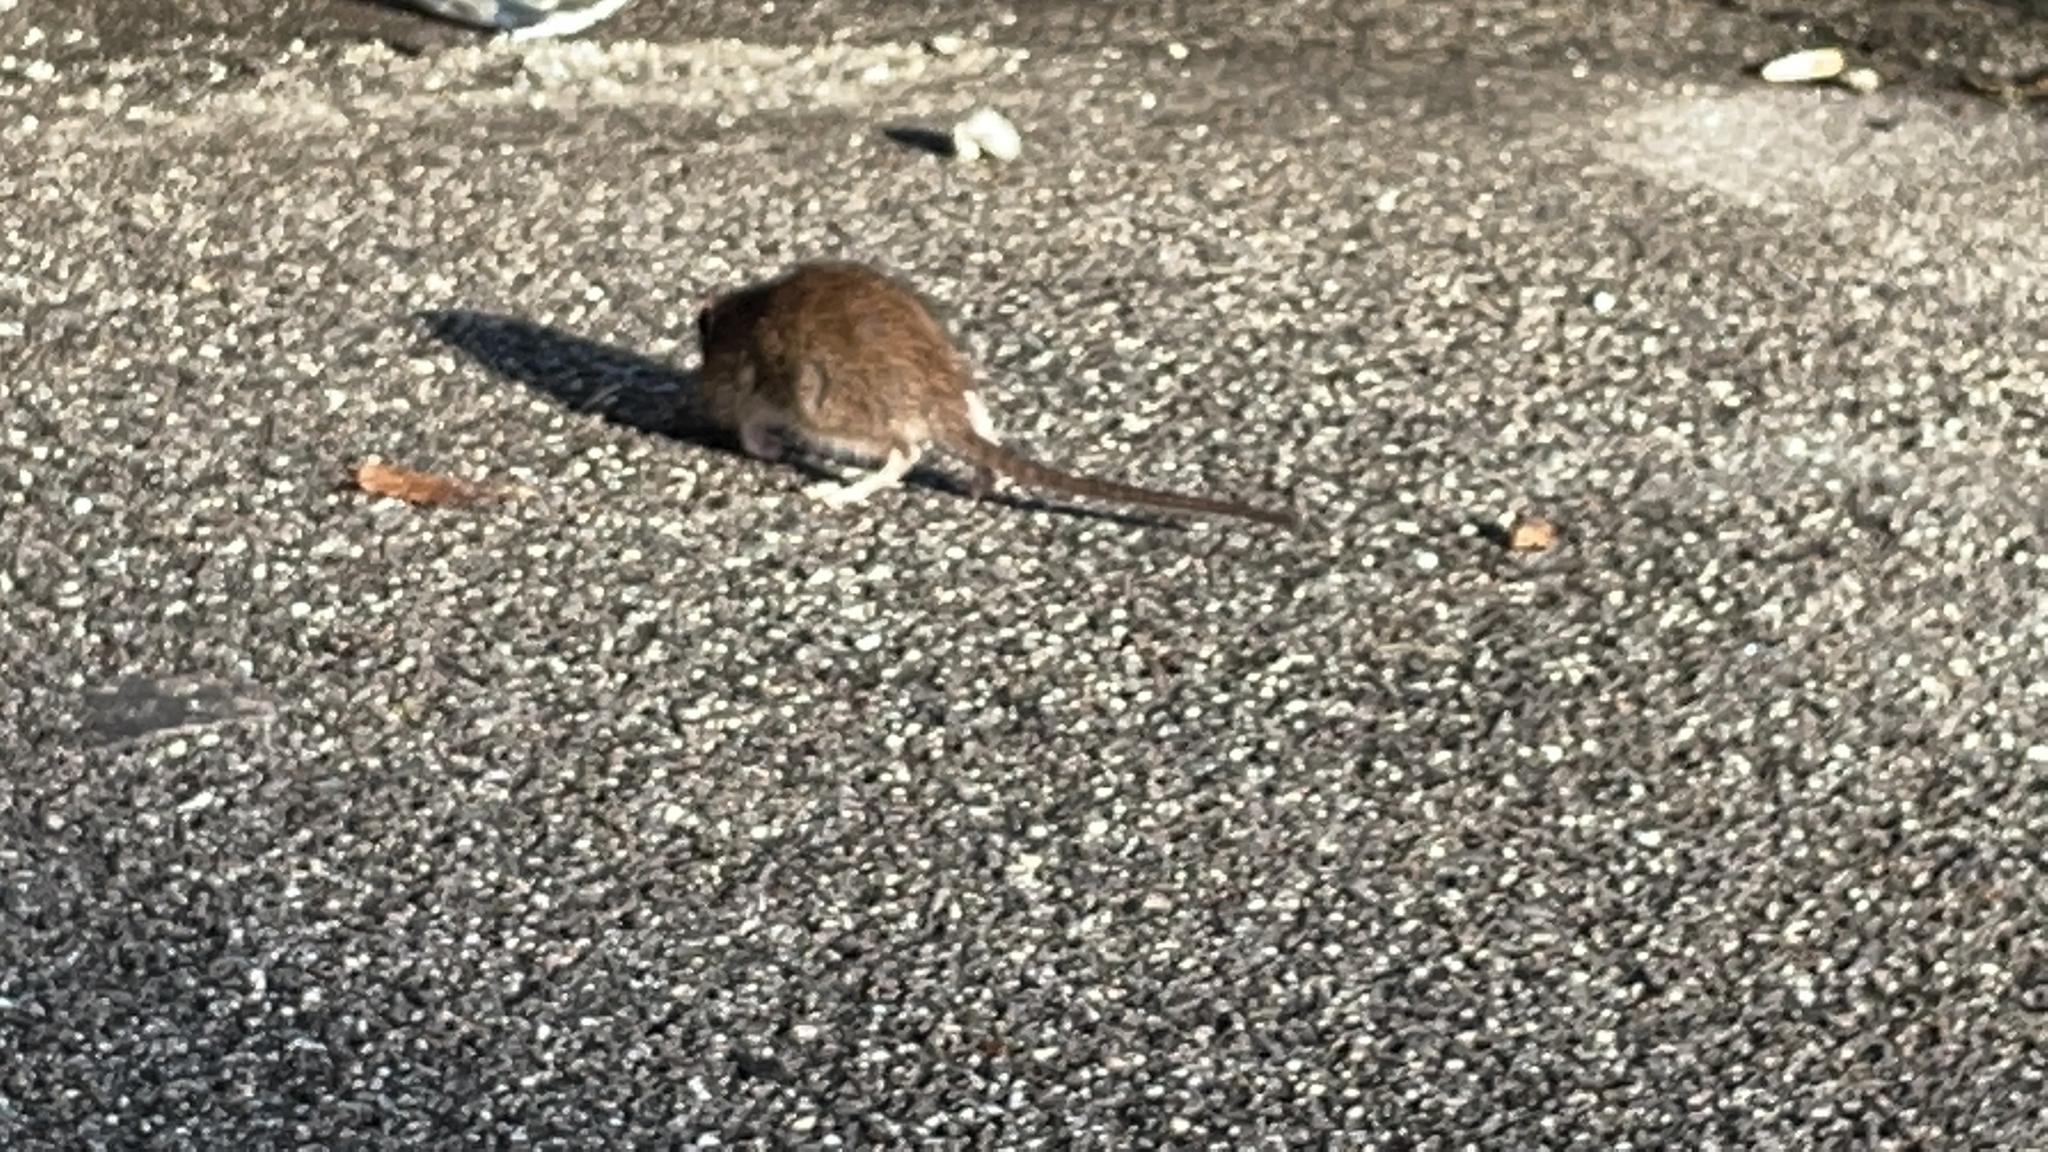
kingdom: Animalia
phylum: Chordata
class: Mammalia
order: Rodentia
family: Muridae
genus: Rattus
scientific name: Rattus norvegicus
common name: Brown rat
